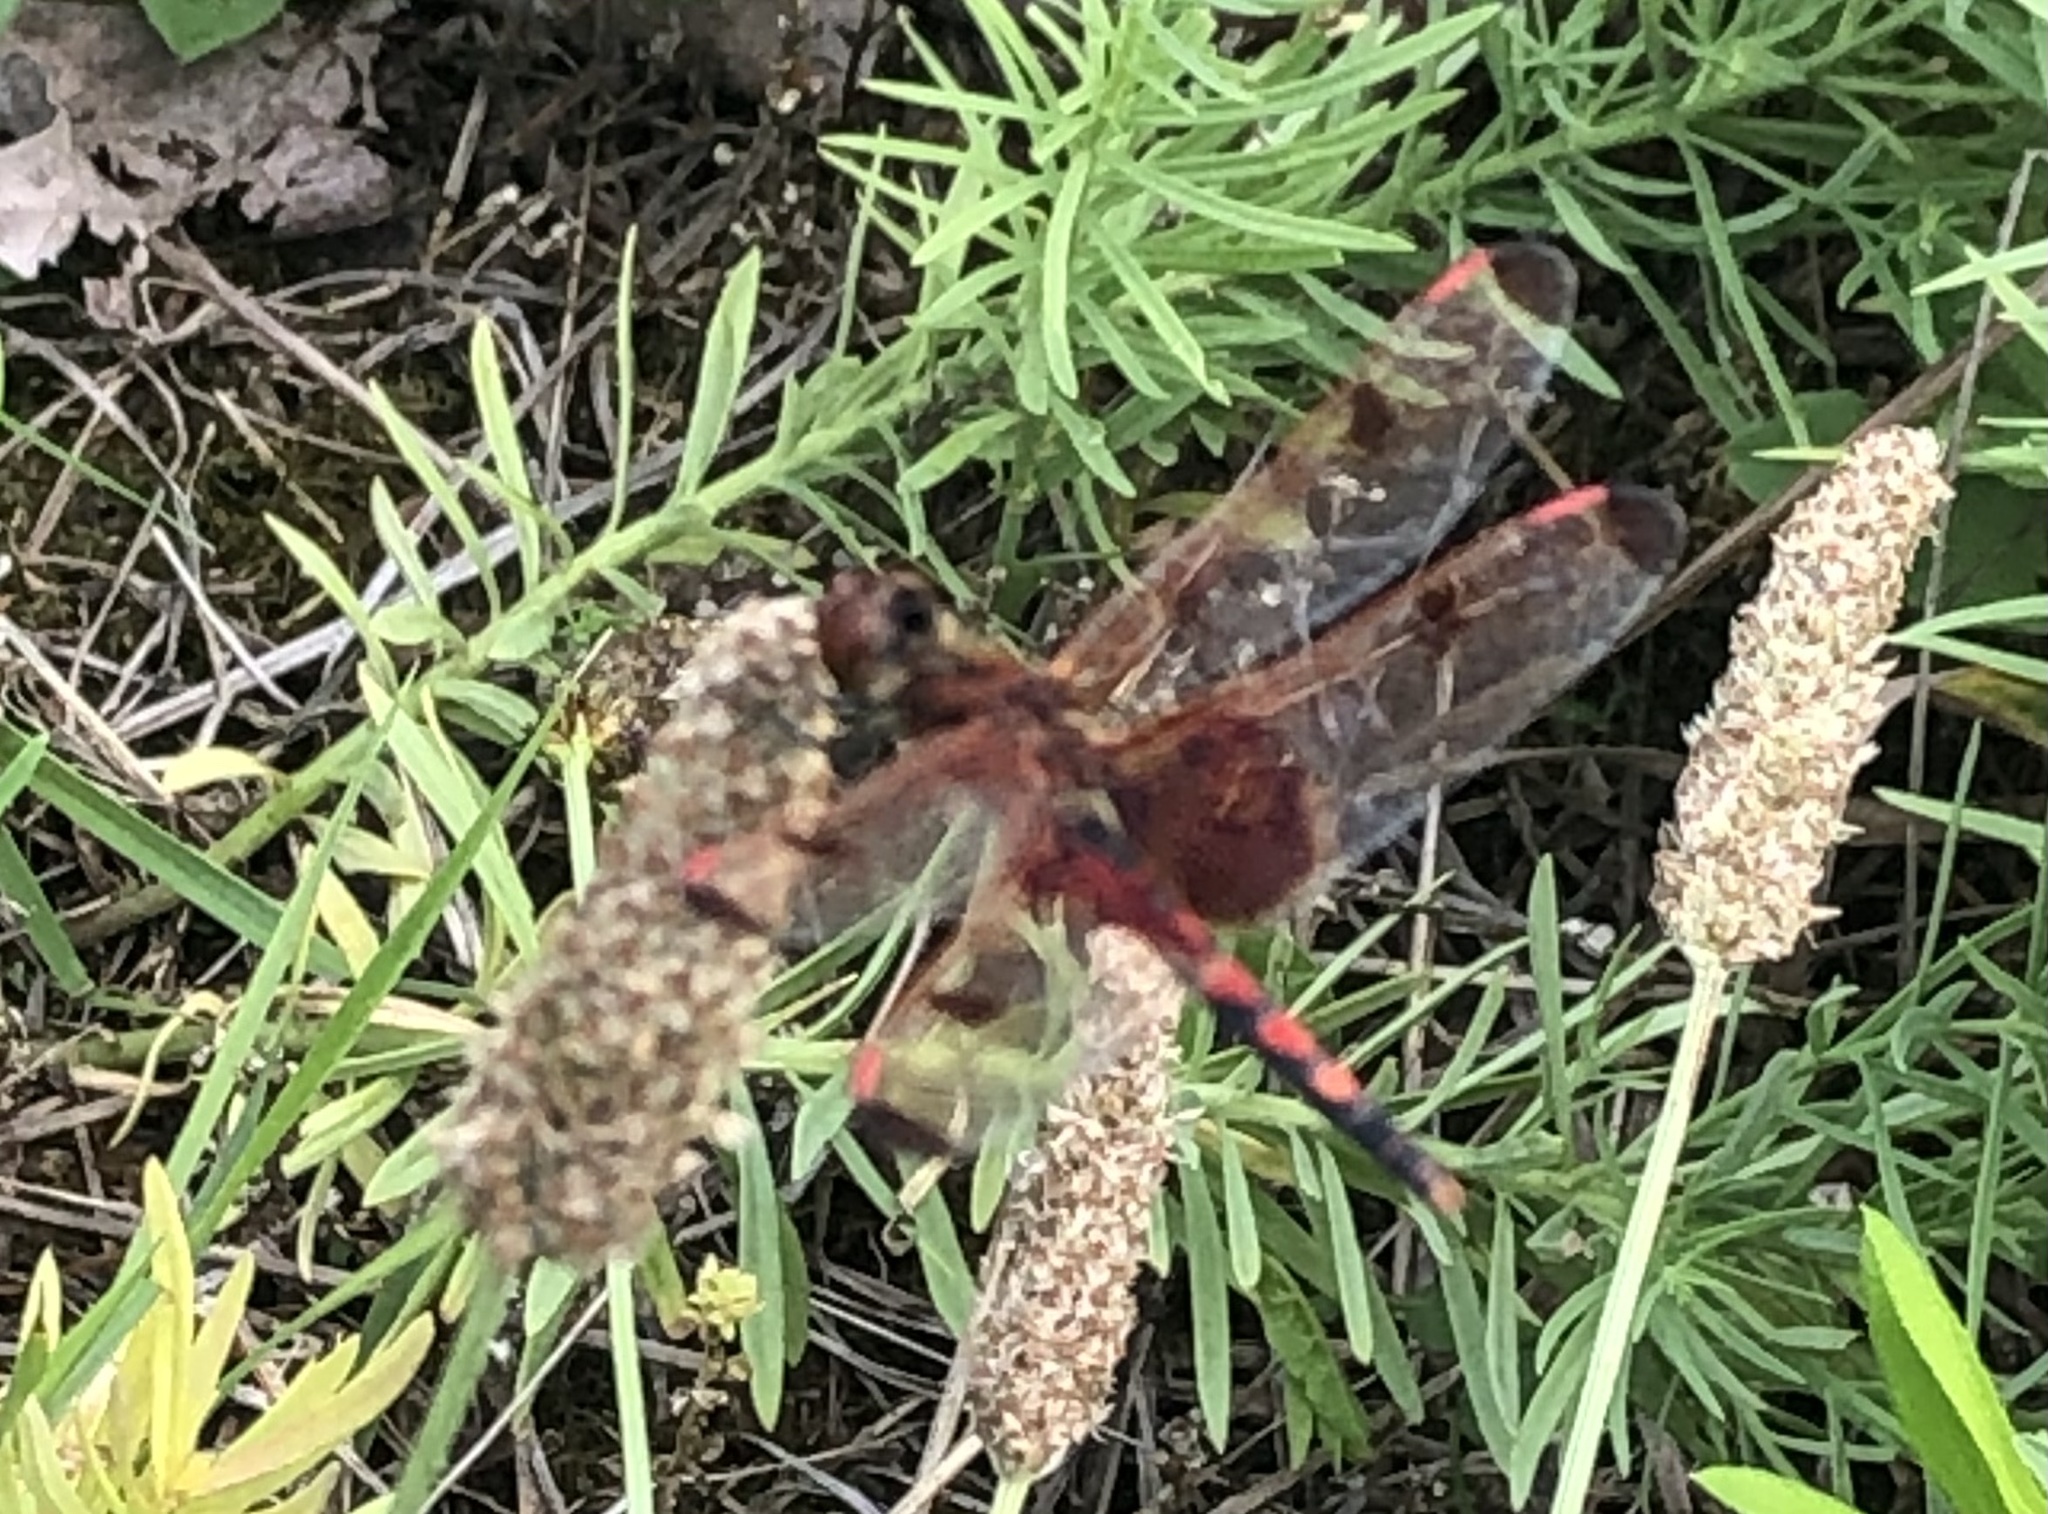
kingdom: Animalia
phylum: Arthropoda
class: Insecta
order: Odonata
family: Libellulidae
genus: Celithemis
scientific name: Celithemis elisa
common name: Calico pennant
